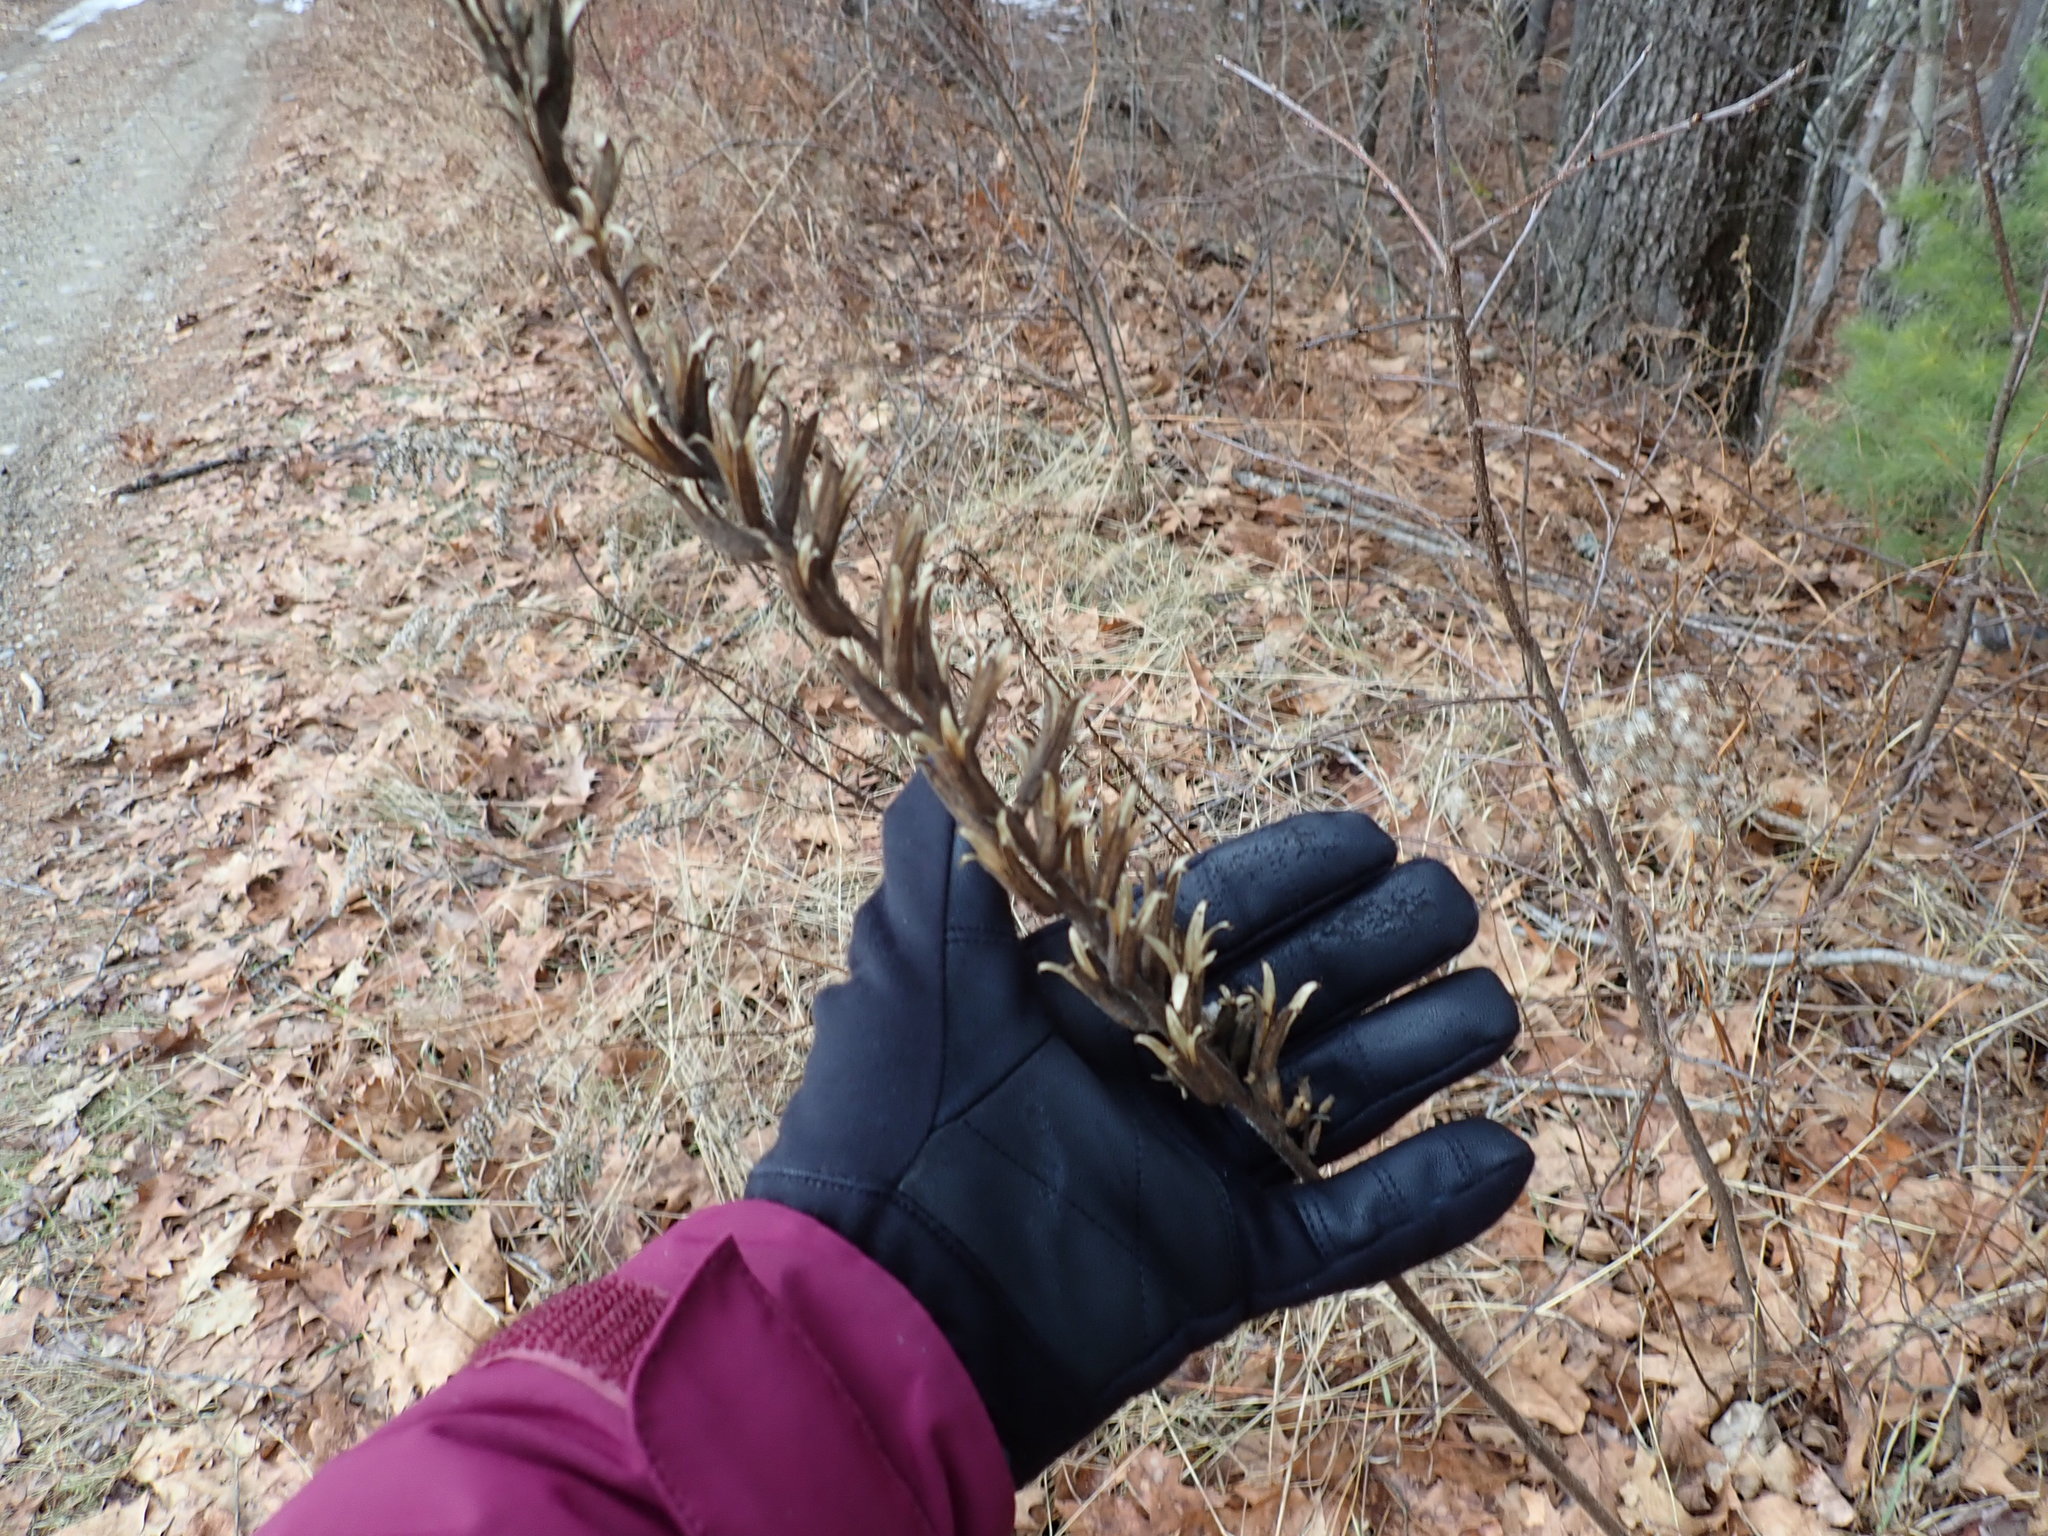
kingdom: Plantae
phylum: Tracheophyta
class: Magnoliopsida
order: Myrtales
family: Onagraceae
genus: Oenothera
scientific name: Oenothera biennis
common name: Common evening-primrose
